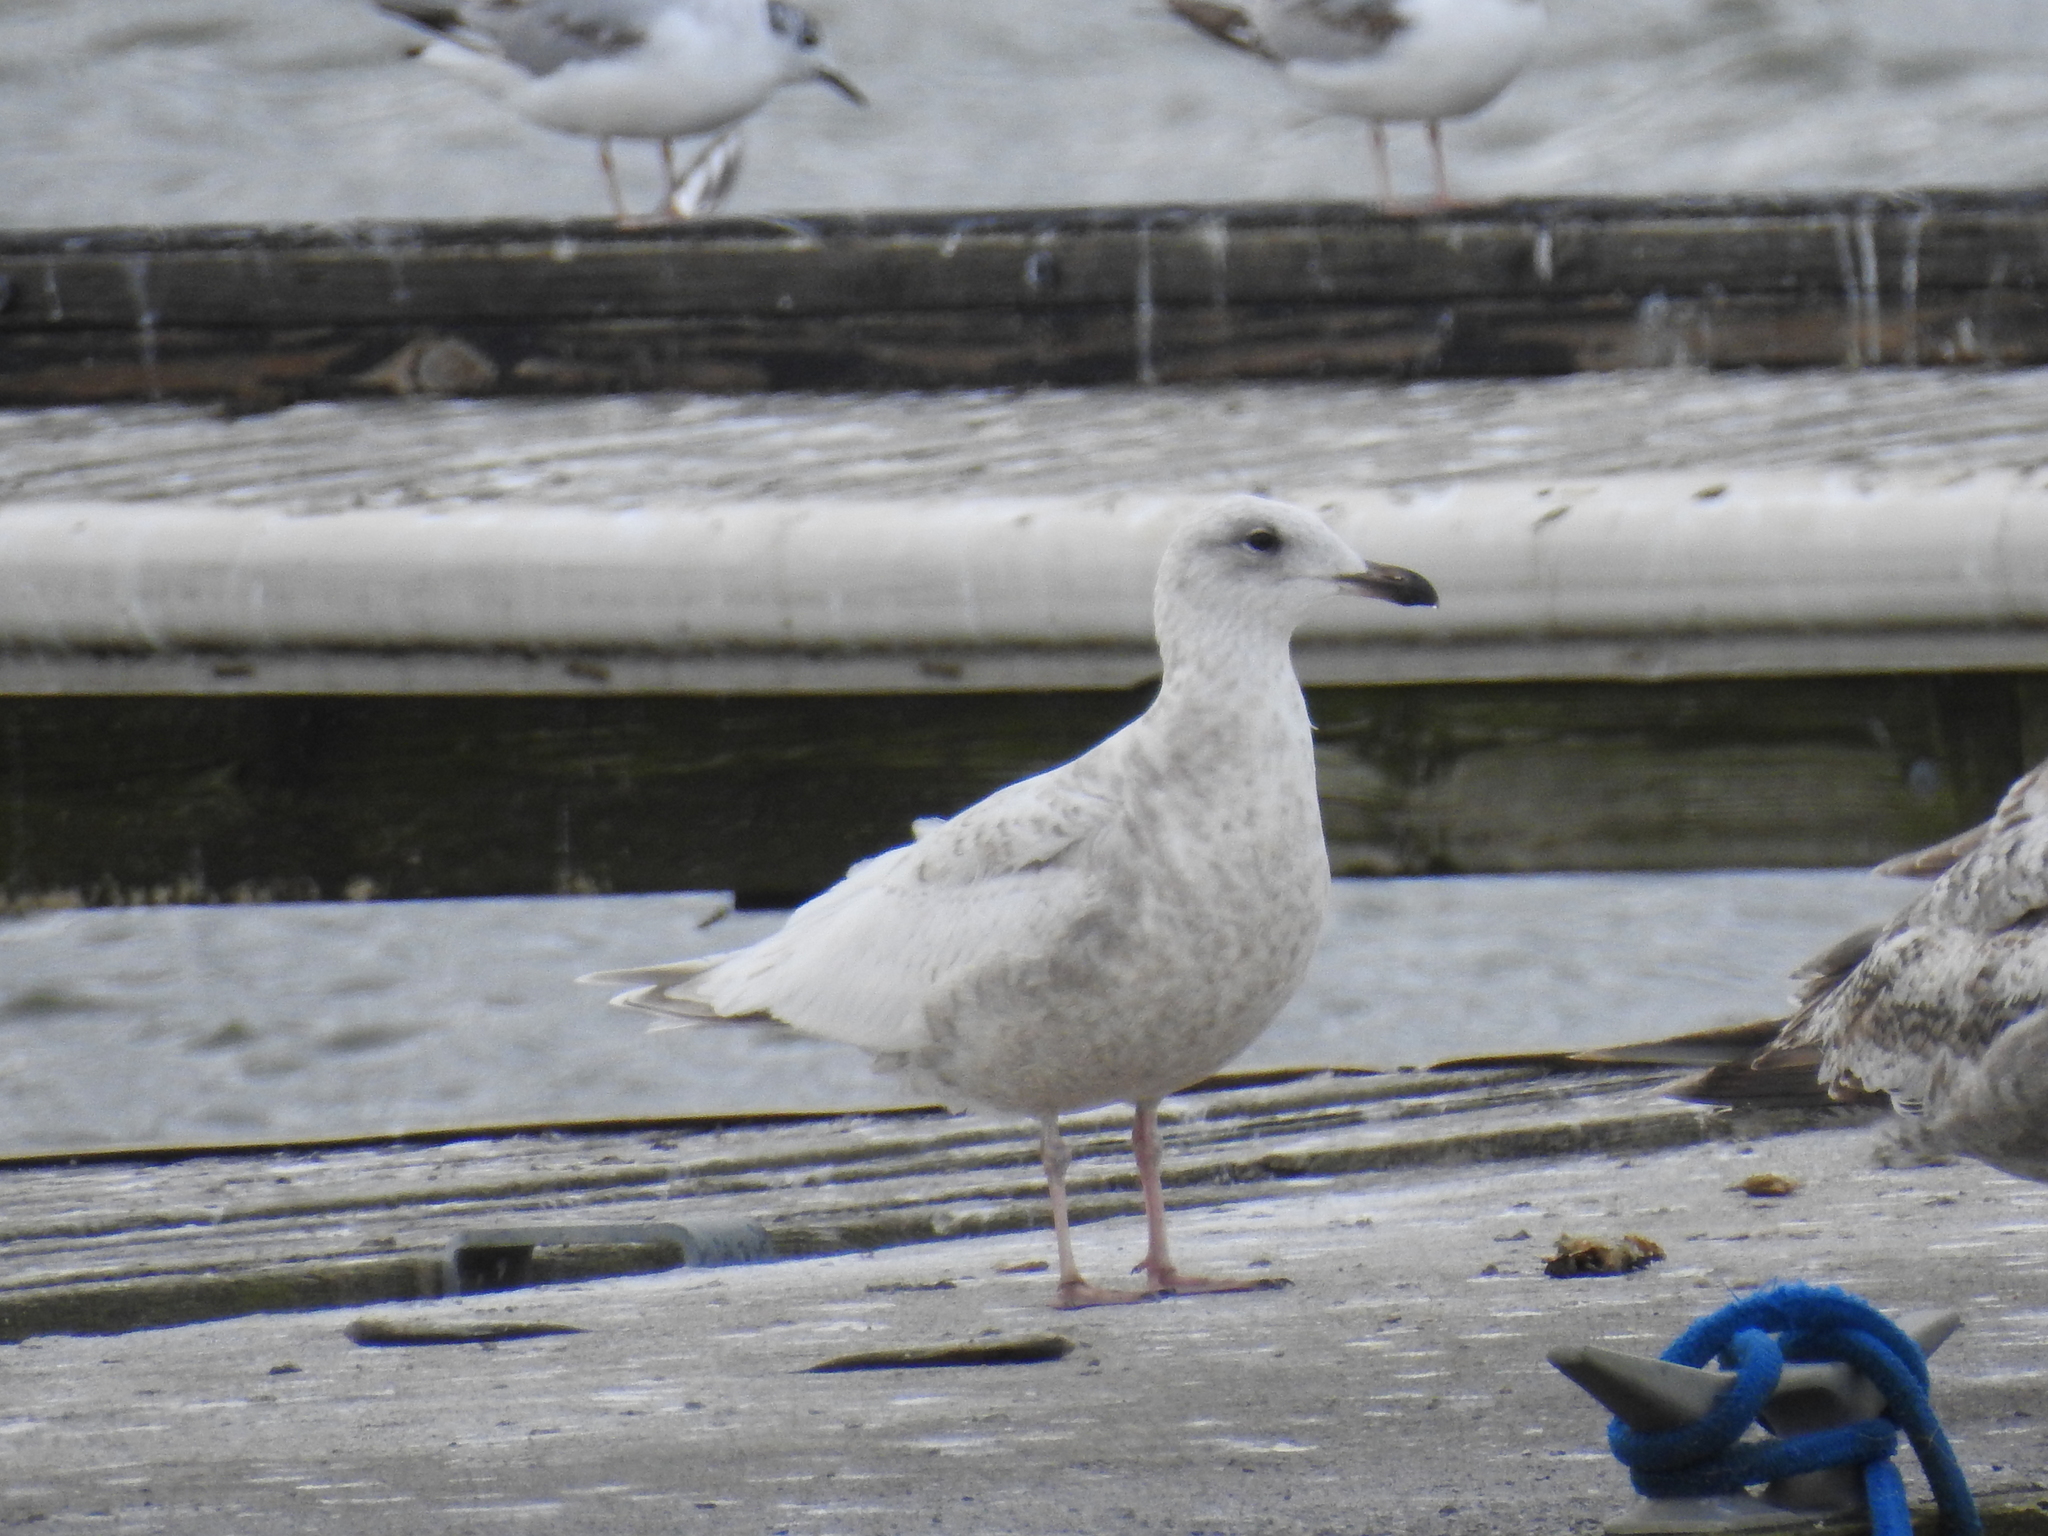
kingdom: Animalia
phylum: Chordata
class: Aves
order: Charadriiformes
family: Laridae
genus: Larus
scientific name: Larus glaucoides
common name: Iceland gull
